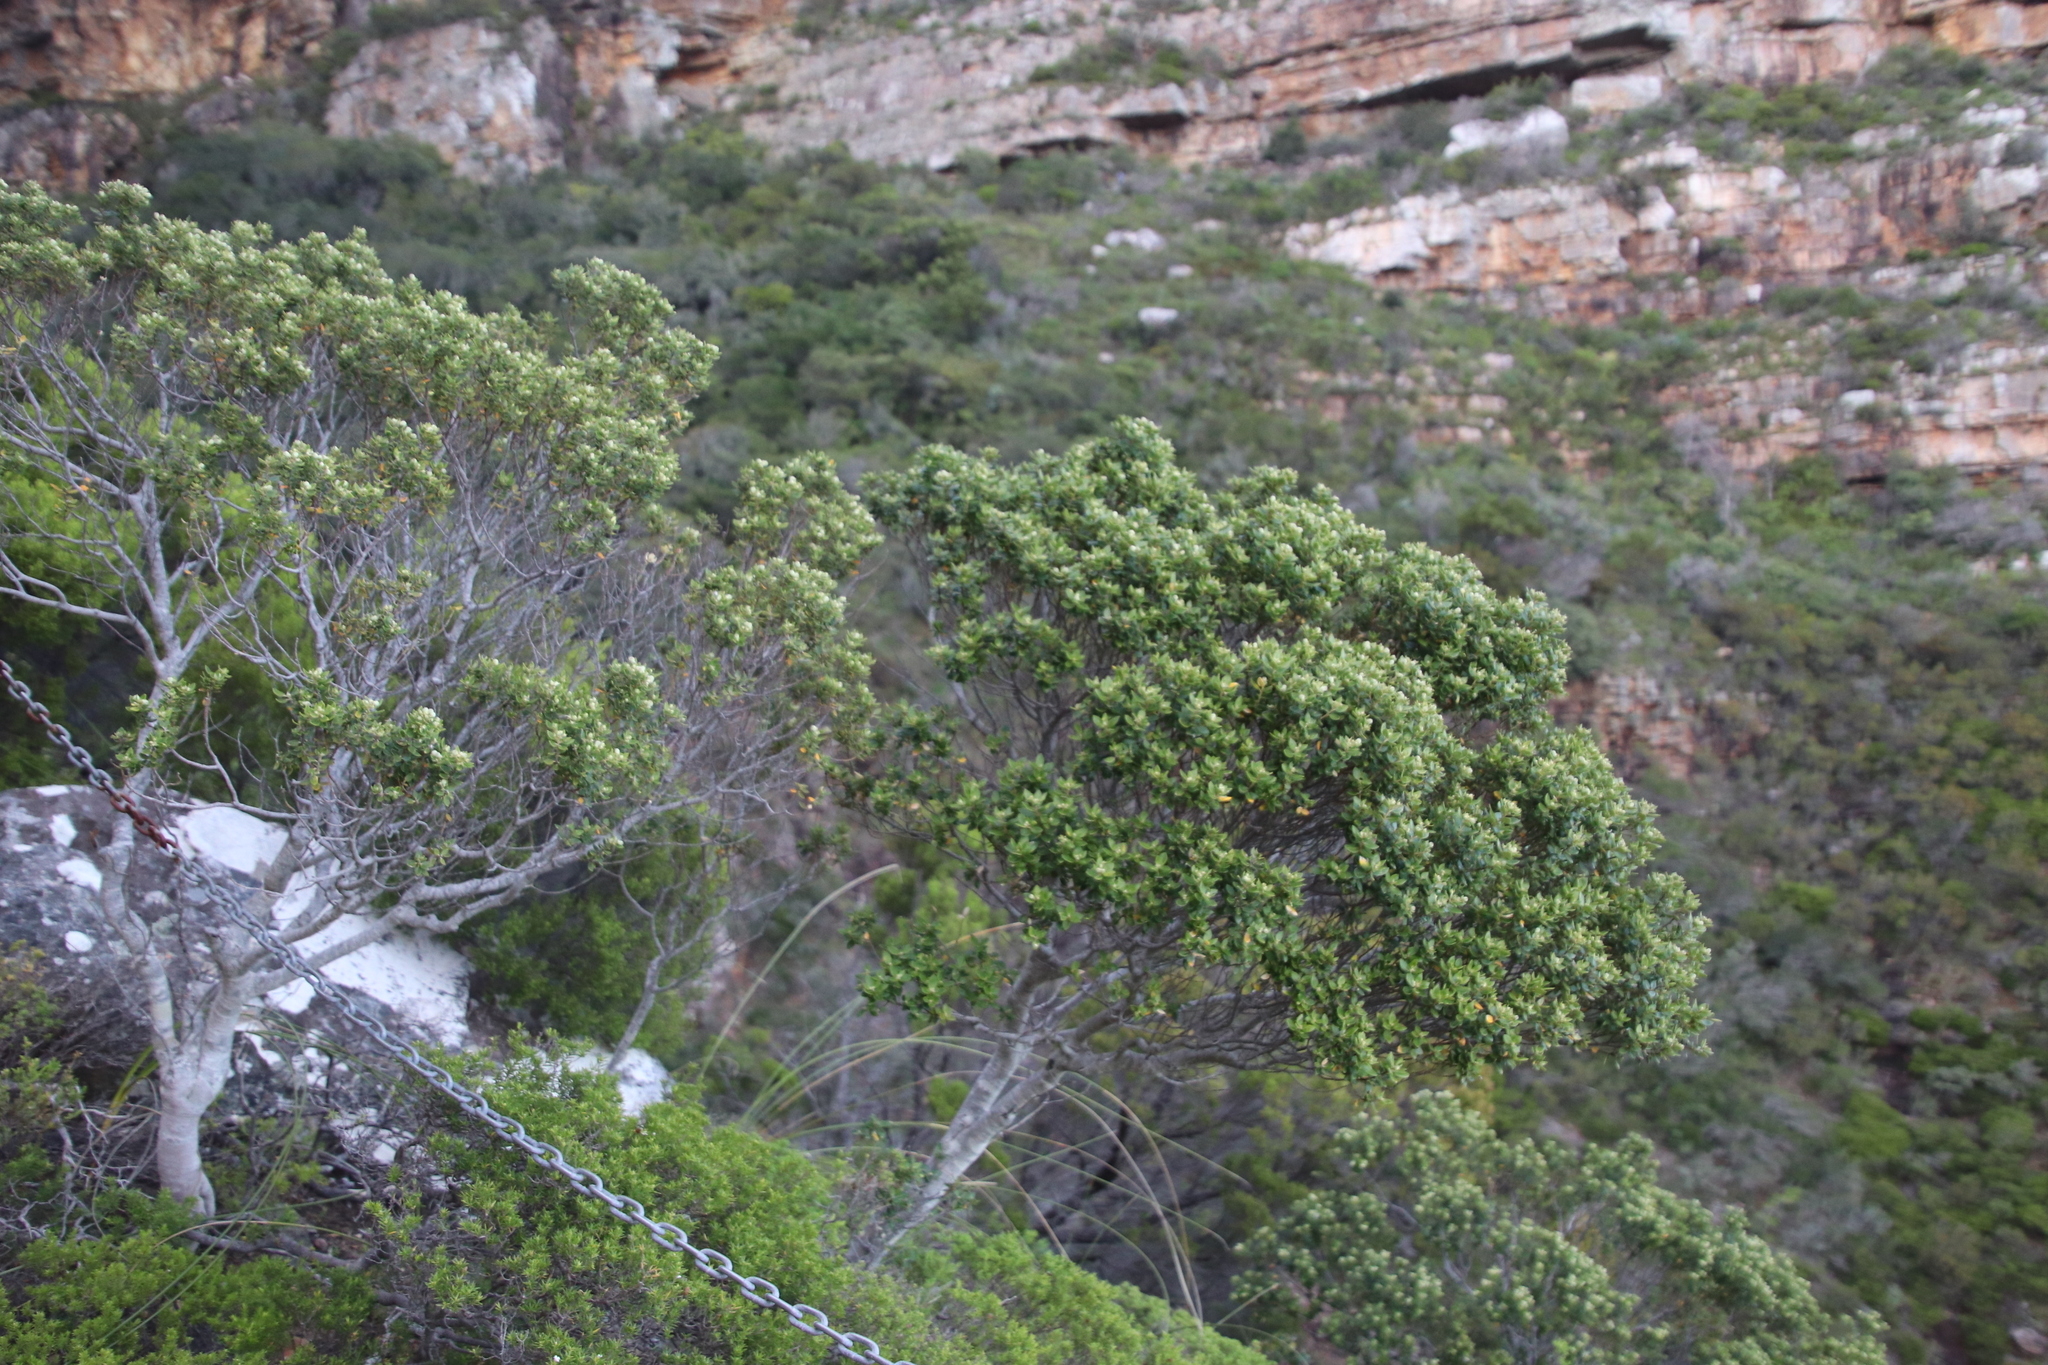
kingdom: Plantae
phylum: Tracheophyta
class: Magnoliopsida
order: Rosales
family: Rhamnaceae
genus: Phylica
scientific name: Phylica buxifolia
